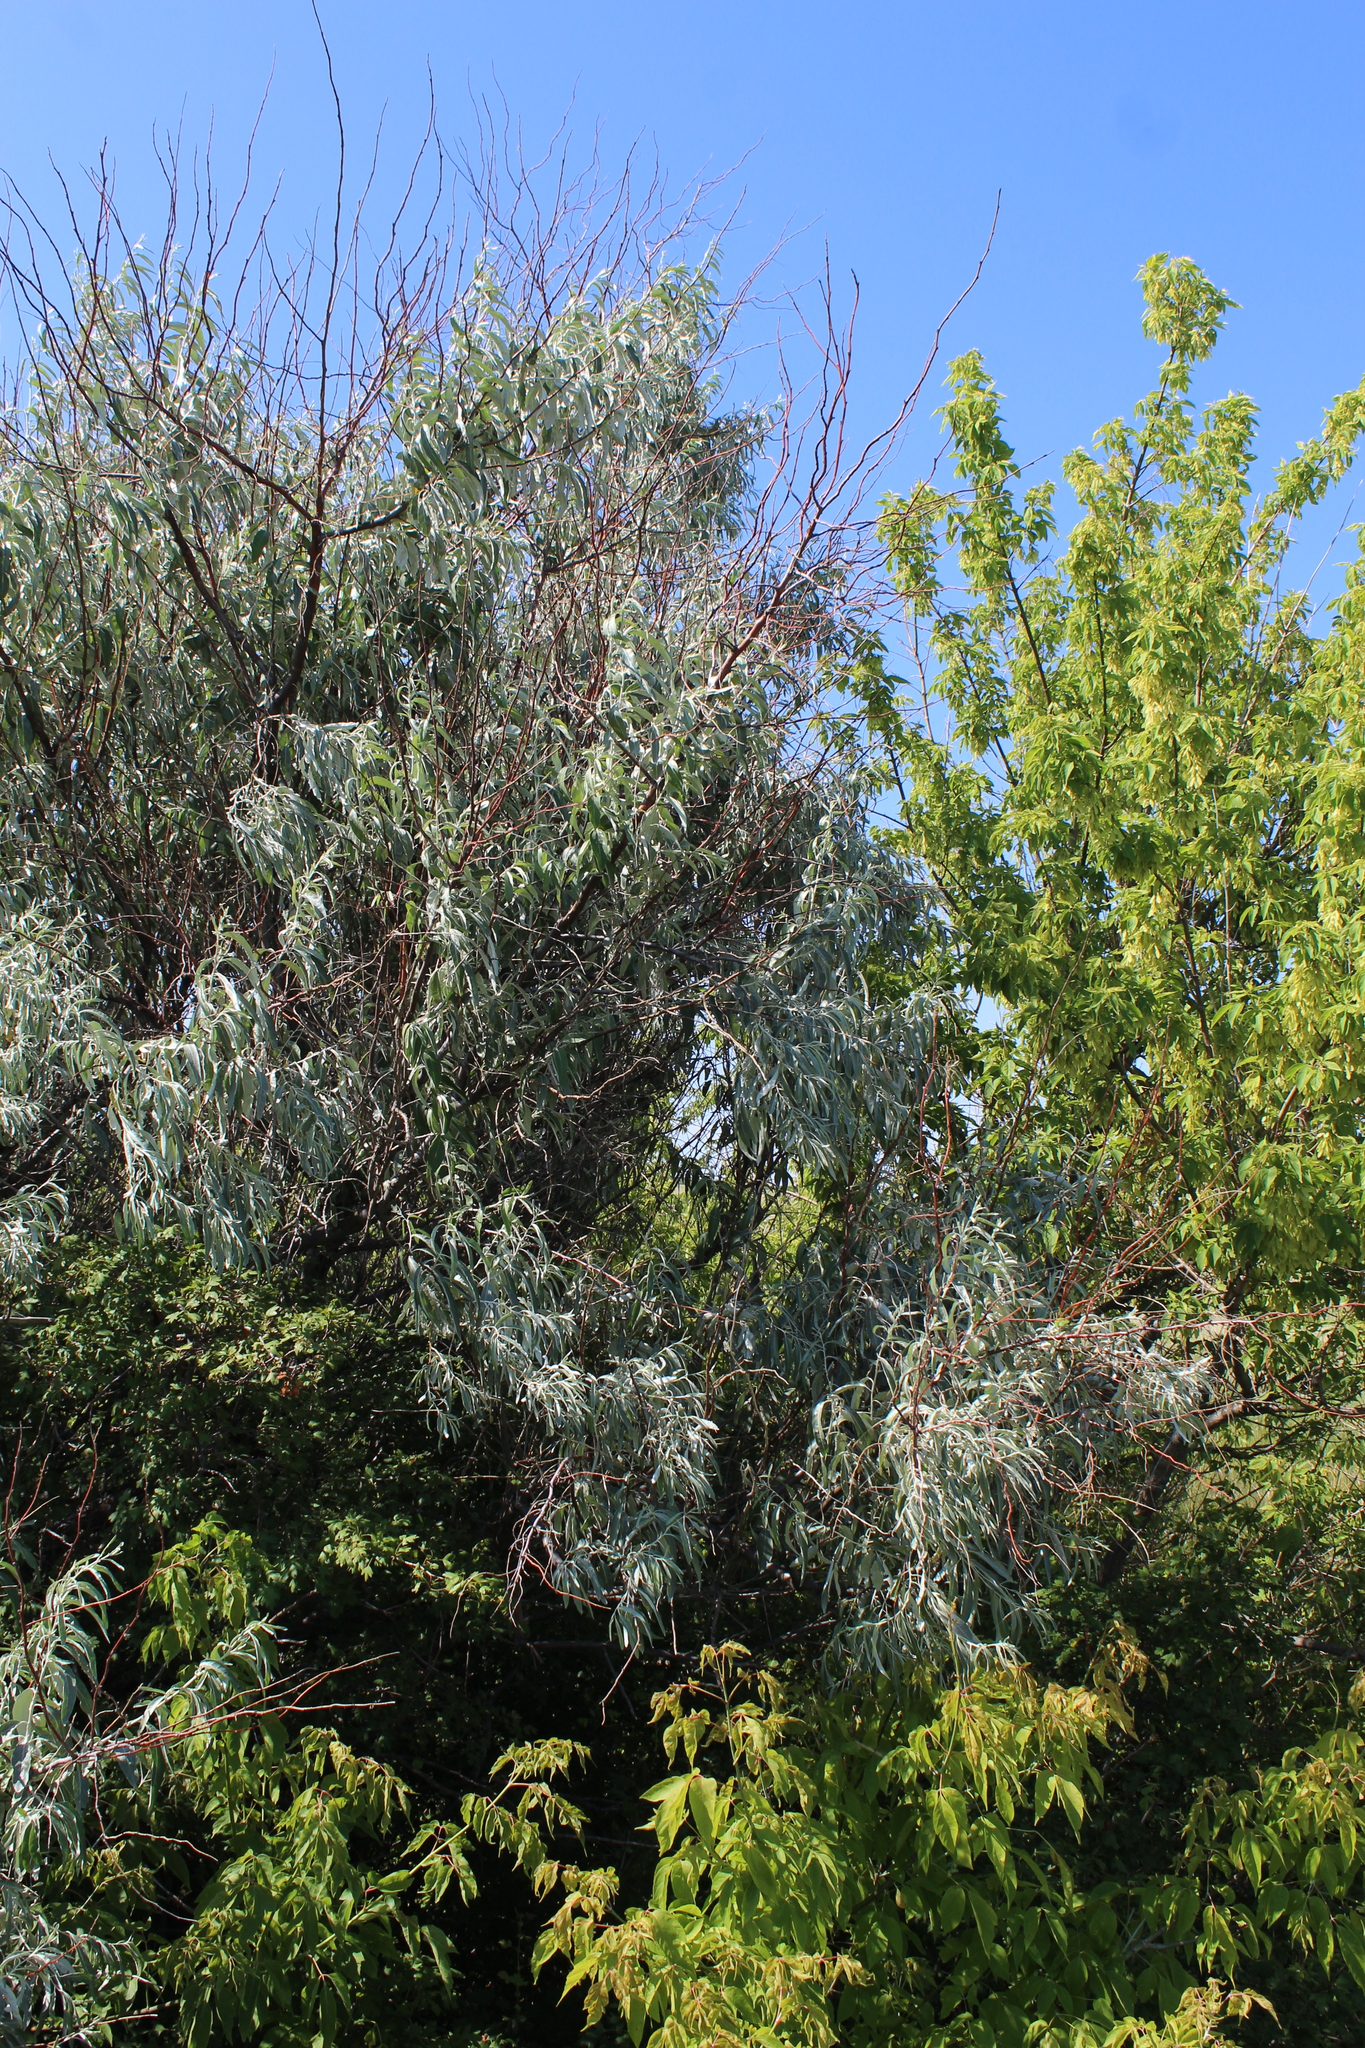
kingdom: Plantae
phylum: Tracheophyta
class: Magnoliopsida
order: Rosales
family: Elaeagnaceae
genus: Elaeagnus
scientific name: Elaeagnus angustifolia
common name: Russian olive
